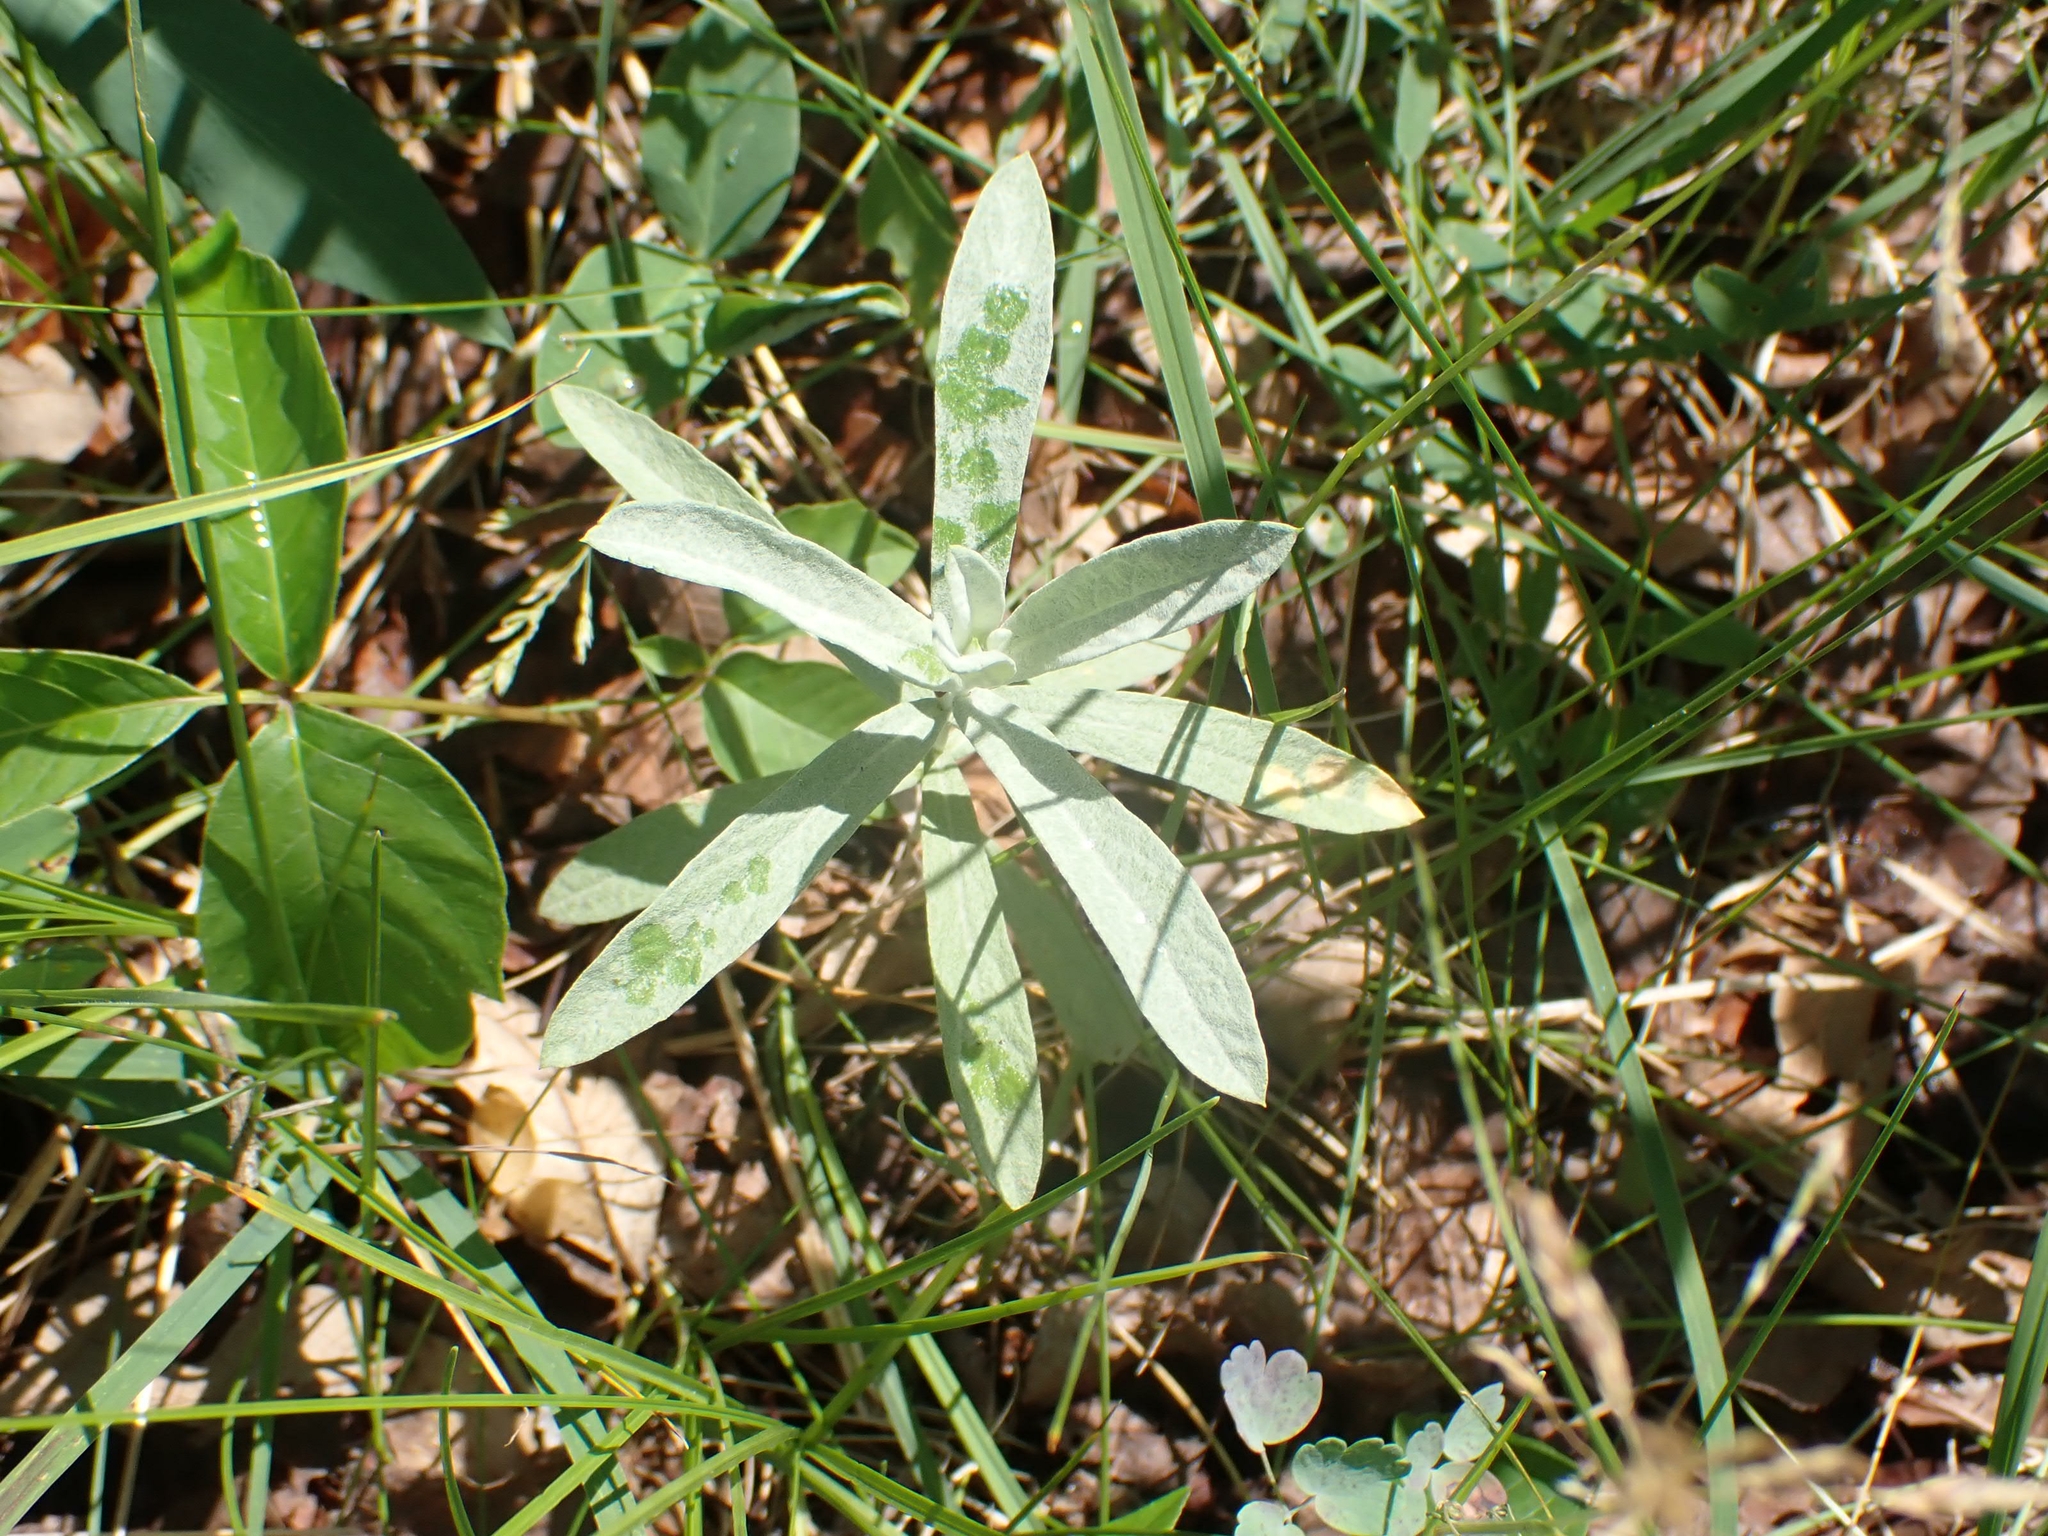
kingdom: Plantae
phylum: Tracheophyta
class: Magnoliopsida
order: Asterales
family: Asteraceae
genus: Artemisia
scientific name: Artemisia ludoviciana
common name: Western mugwort
